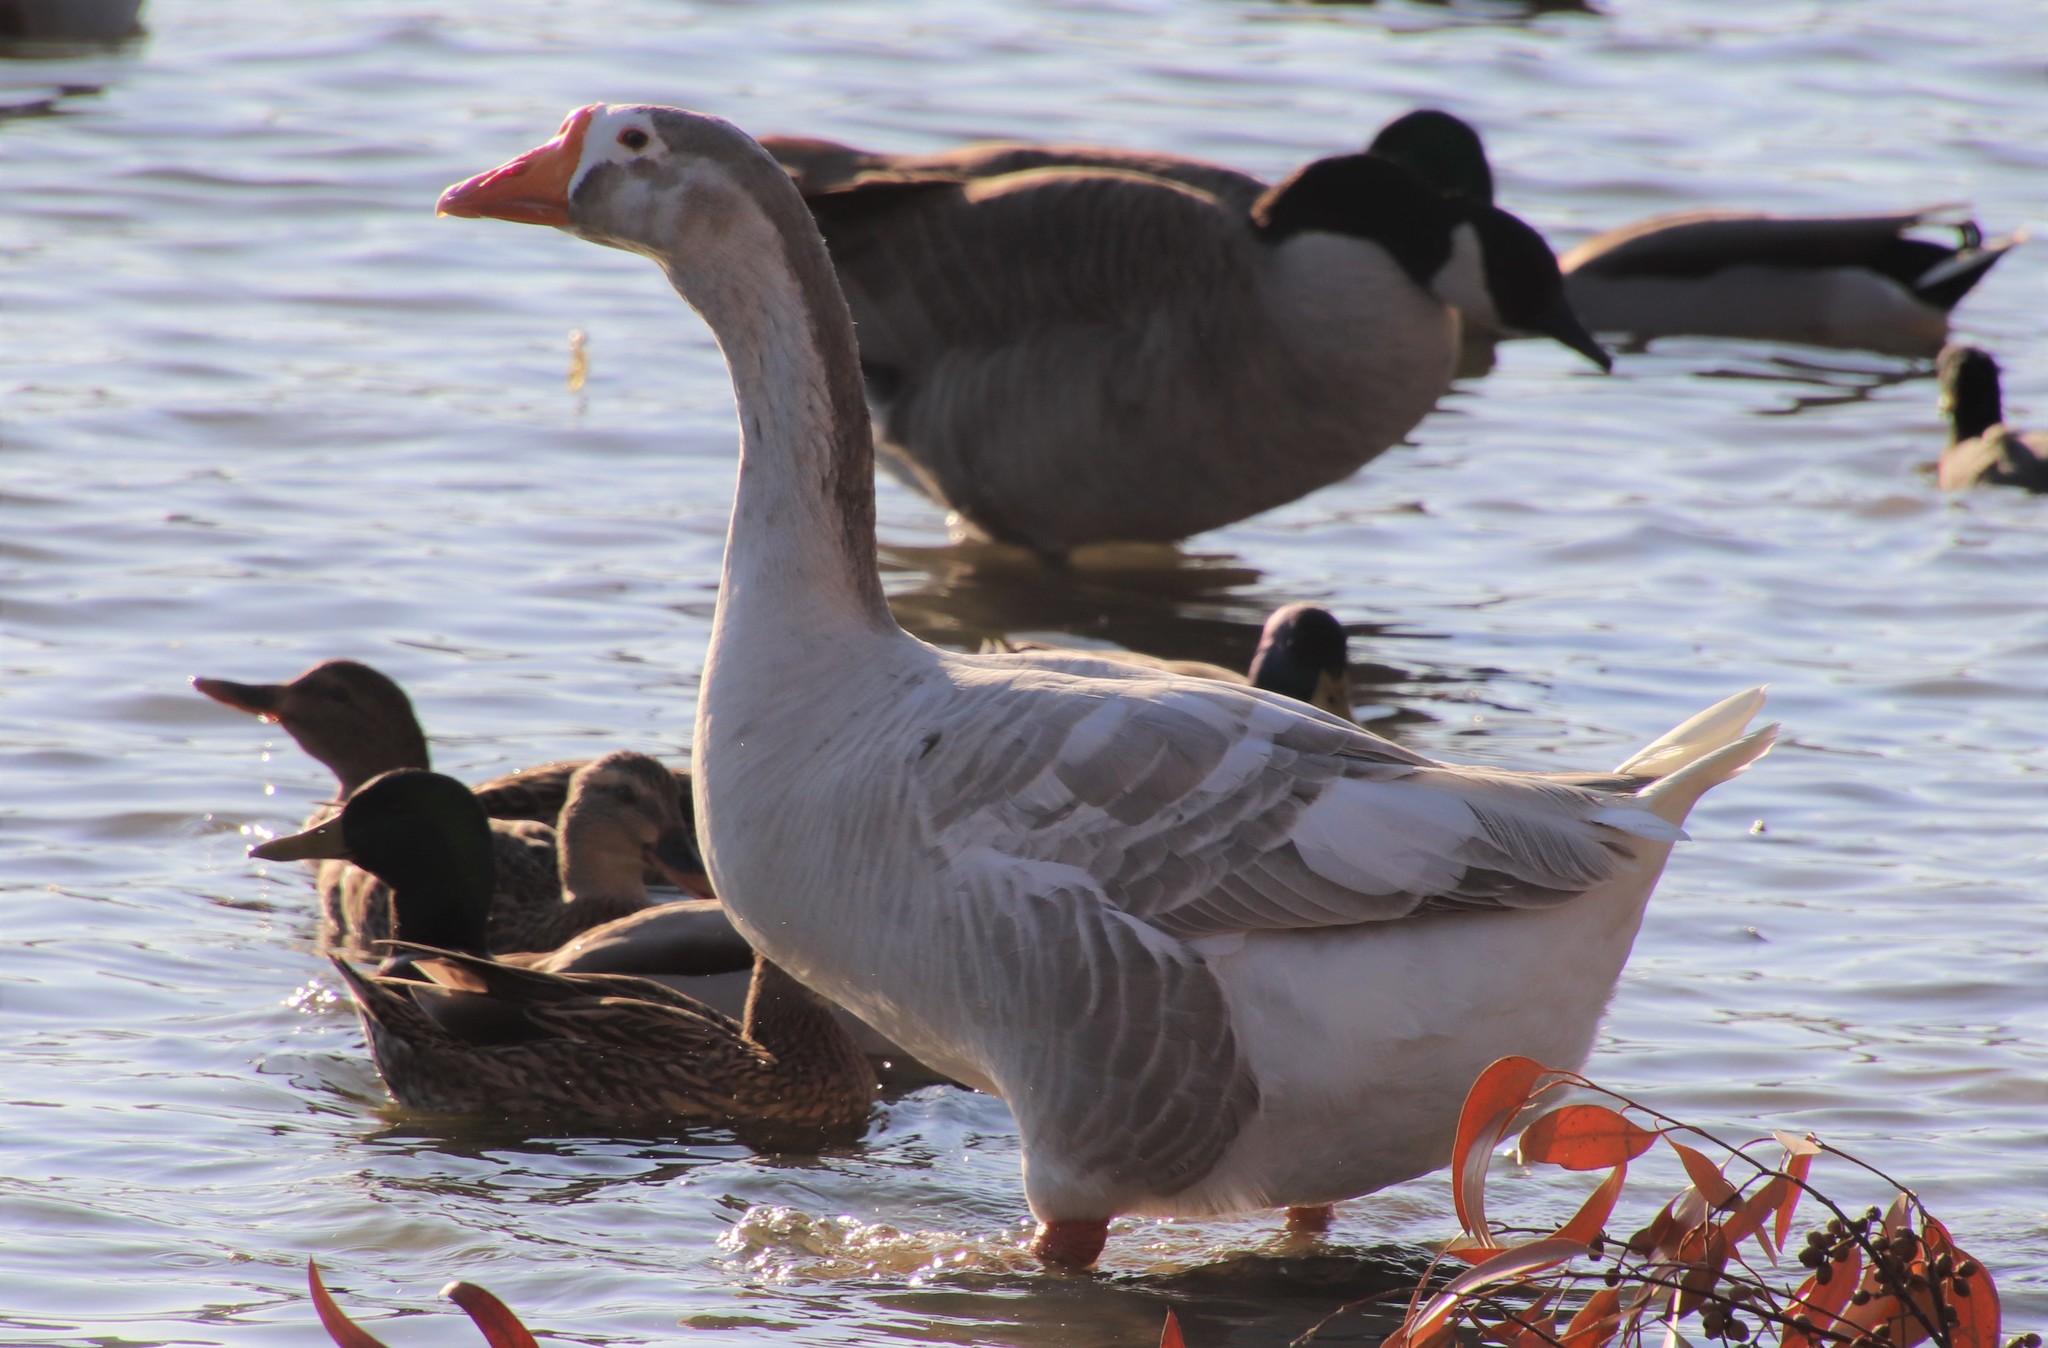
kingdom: Animalia
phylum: Chordata
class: Aves
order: Anseriformes
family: Anatidae
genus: Anser
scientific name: Anser
